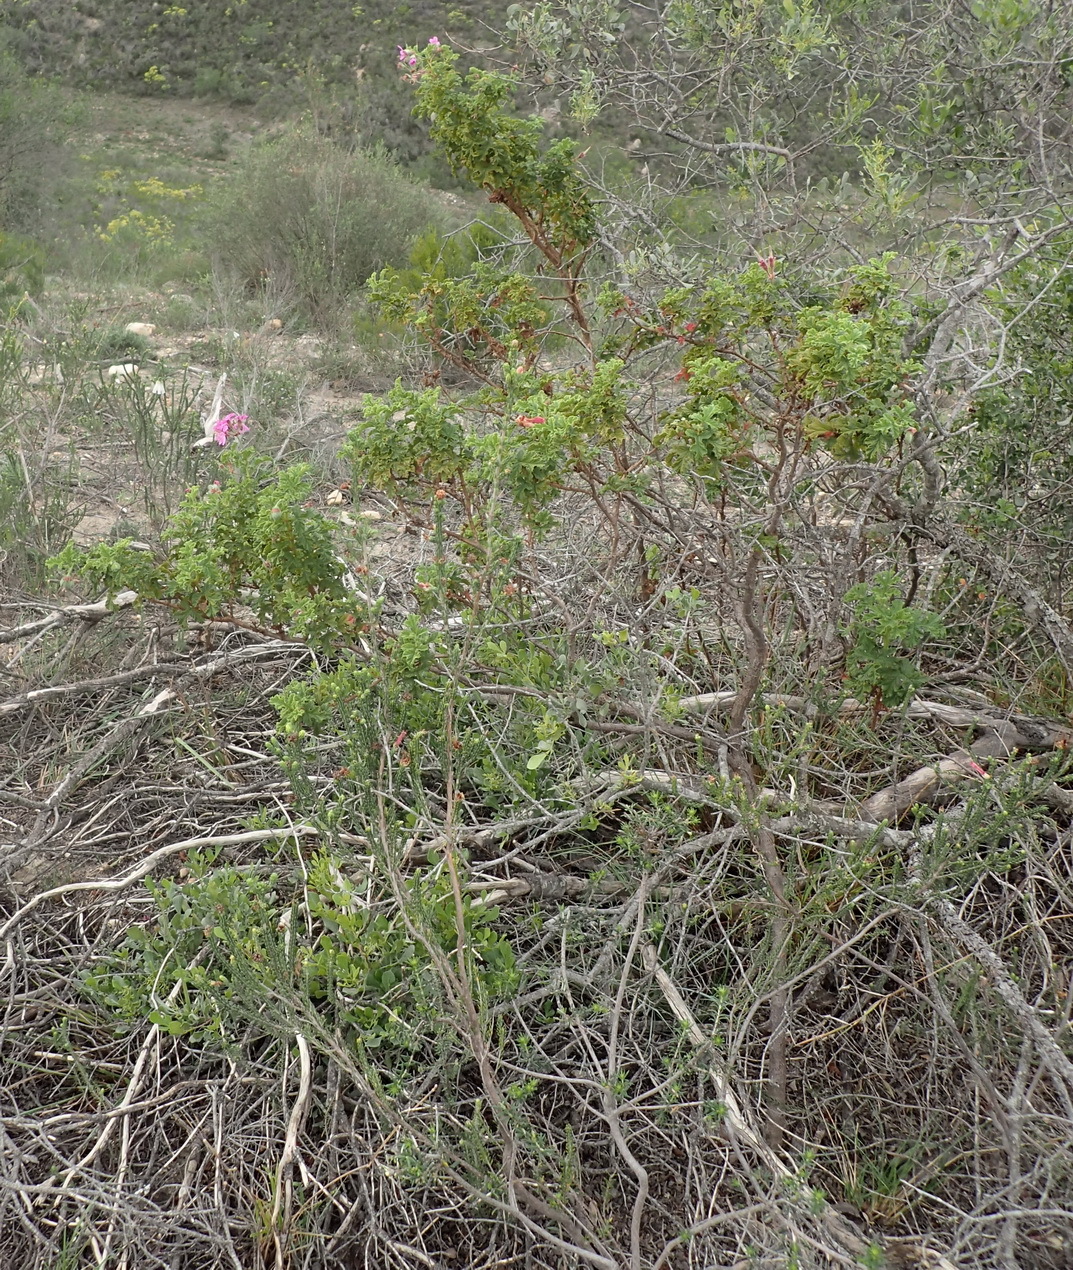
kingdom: Plantae
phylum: Tracheophyta
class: Magnoliopsida
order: Geraniales
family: Geraniaceae
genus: Pelargonium
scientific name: Pelargonium glutinosum
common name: Pheasant-foot geranium
